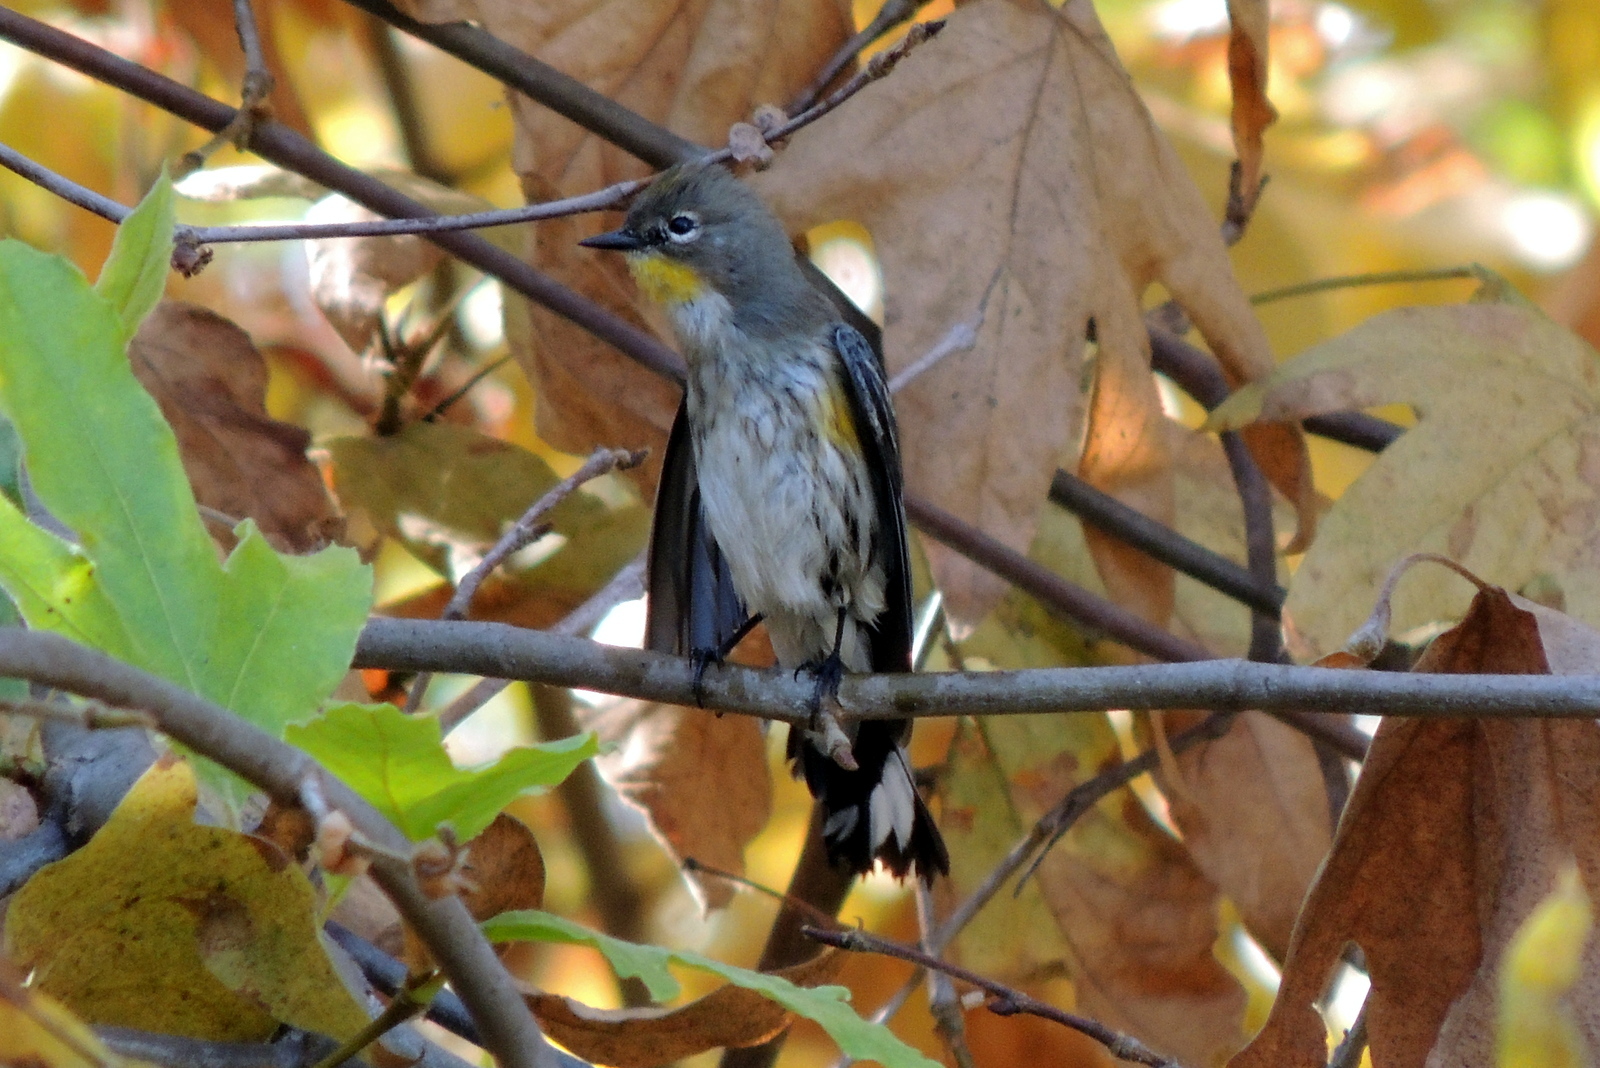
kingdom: Animalia
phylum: Chordata
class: Aves
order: Passeriformes
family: Parulidae
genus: Setophaga
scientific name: Setophaga coronata
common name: Myrtle warbler
